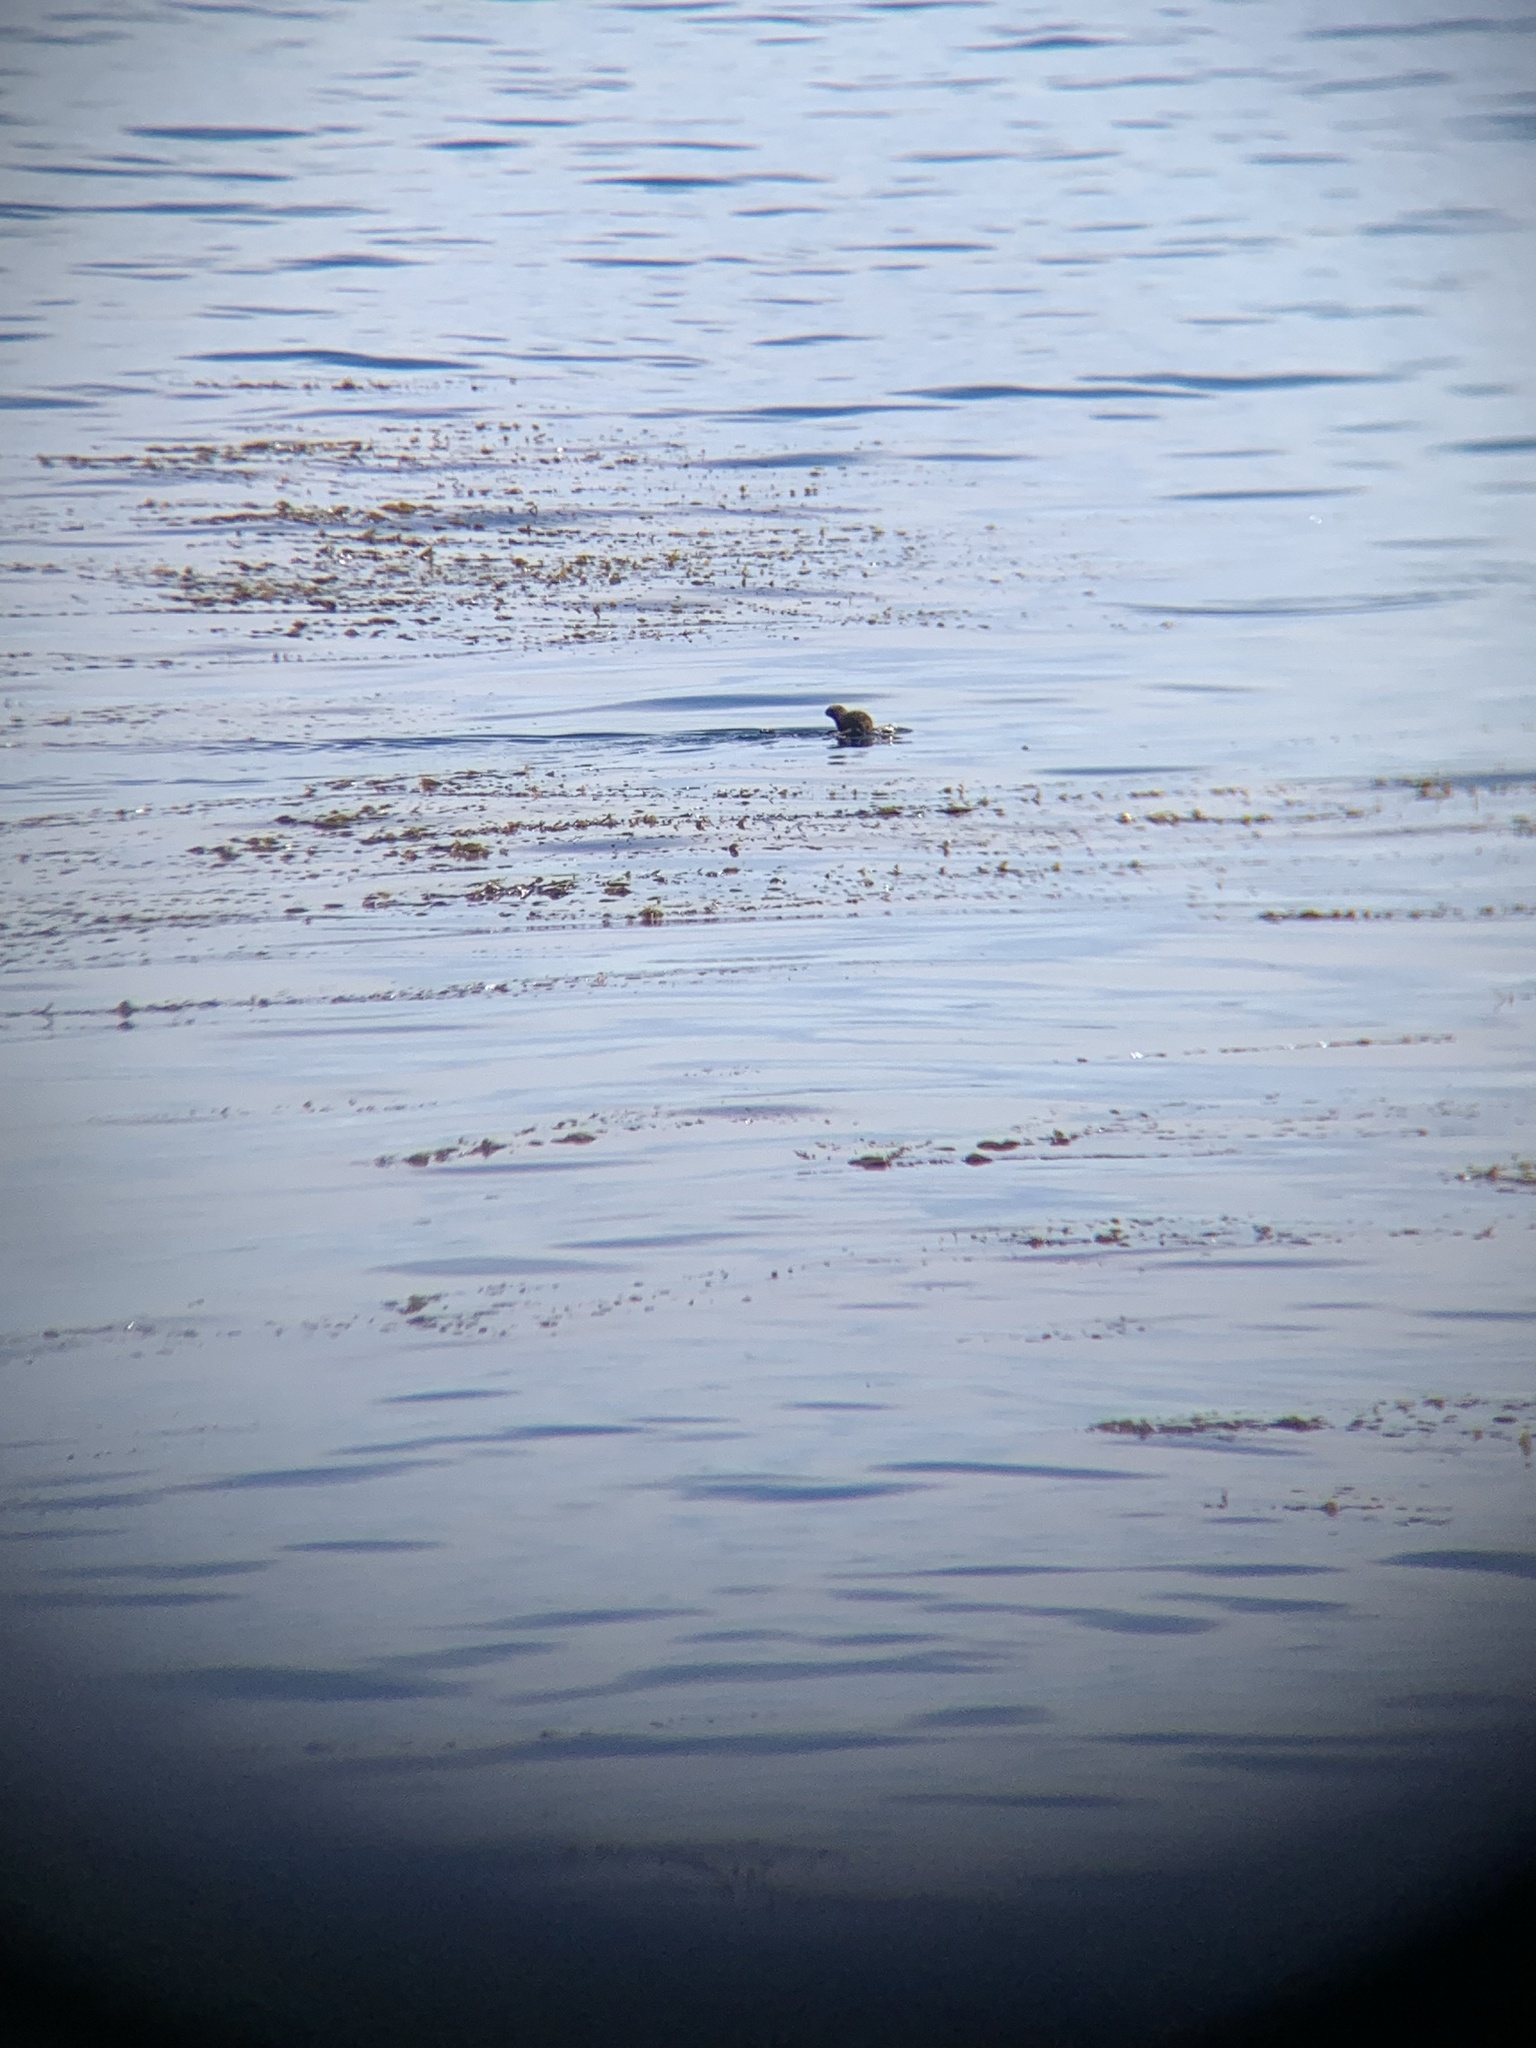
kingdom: Animalia
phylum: Chordata
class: Mammalia
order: Carnivora
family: Mustelidae
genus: Enhydra
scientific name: Enhydra lutris
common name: Sea otter
